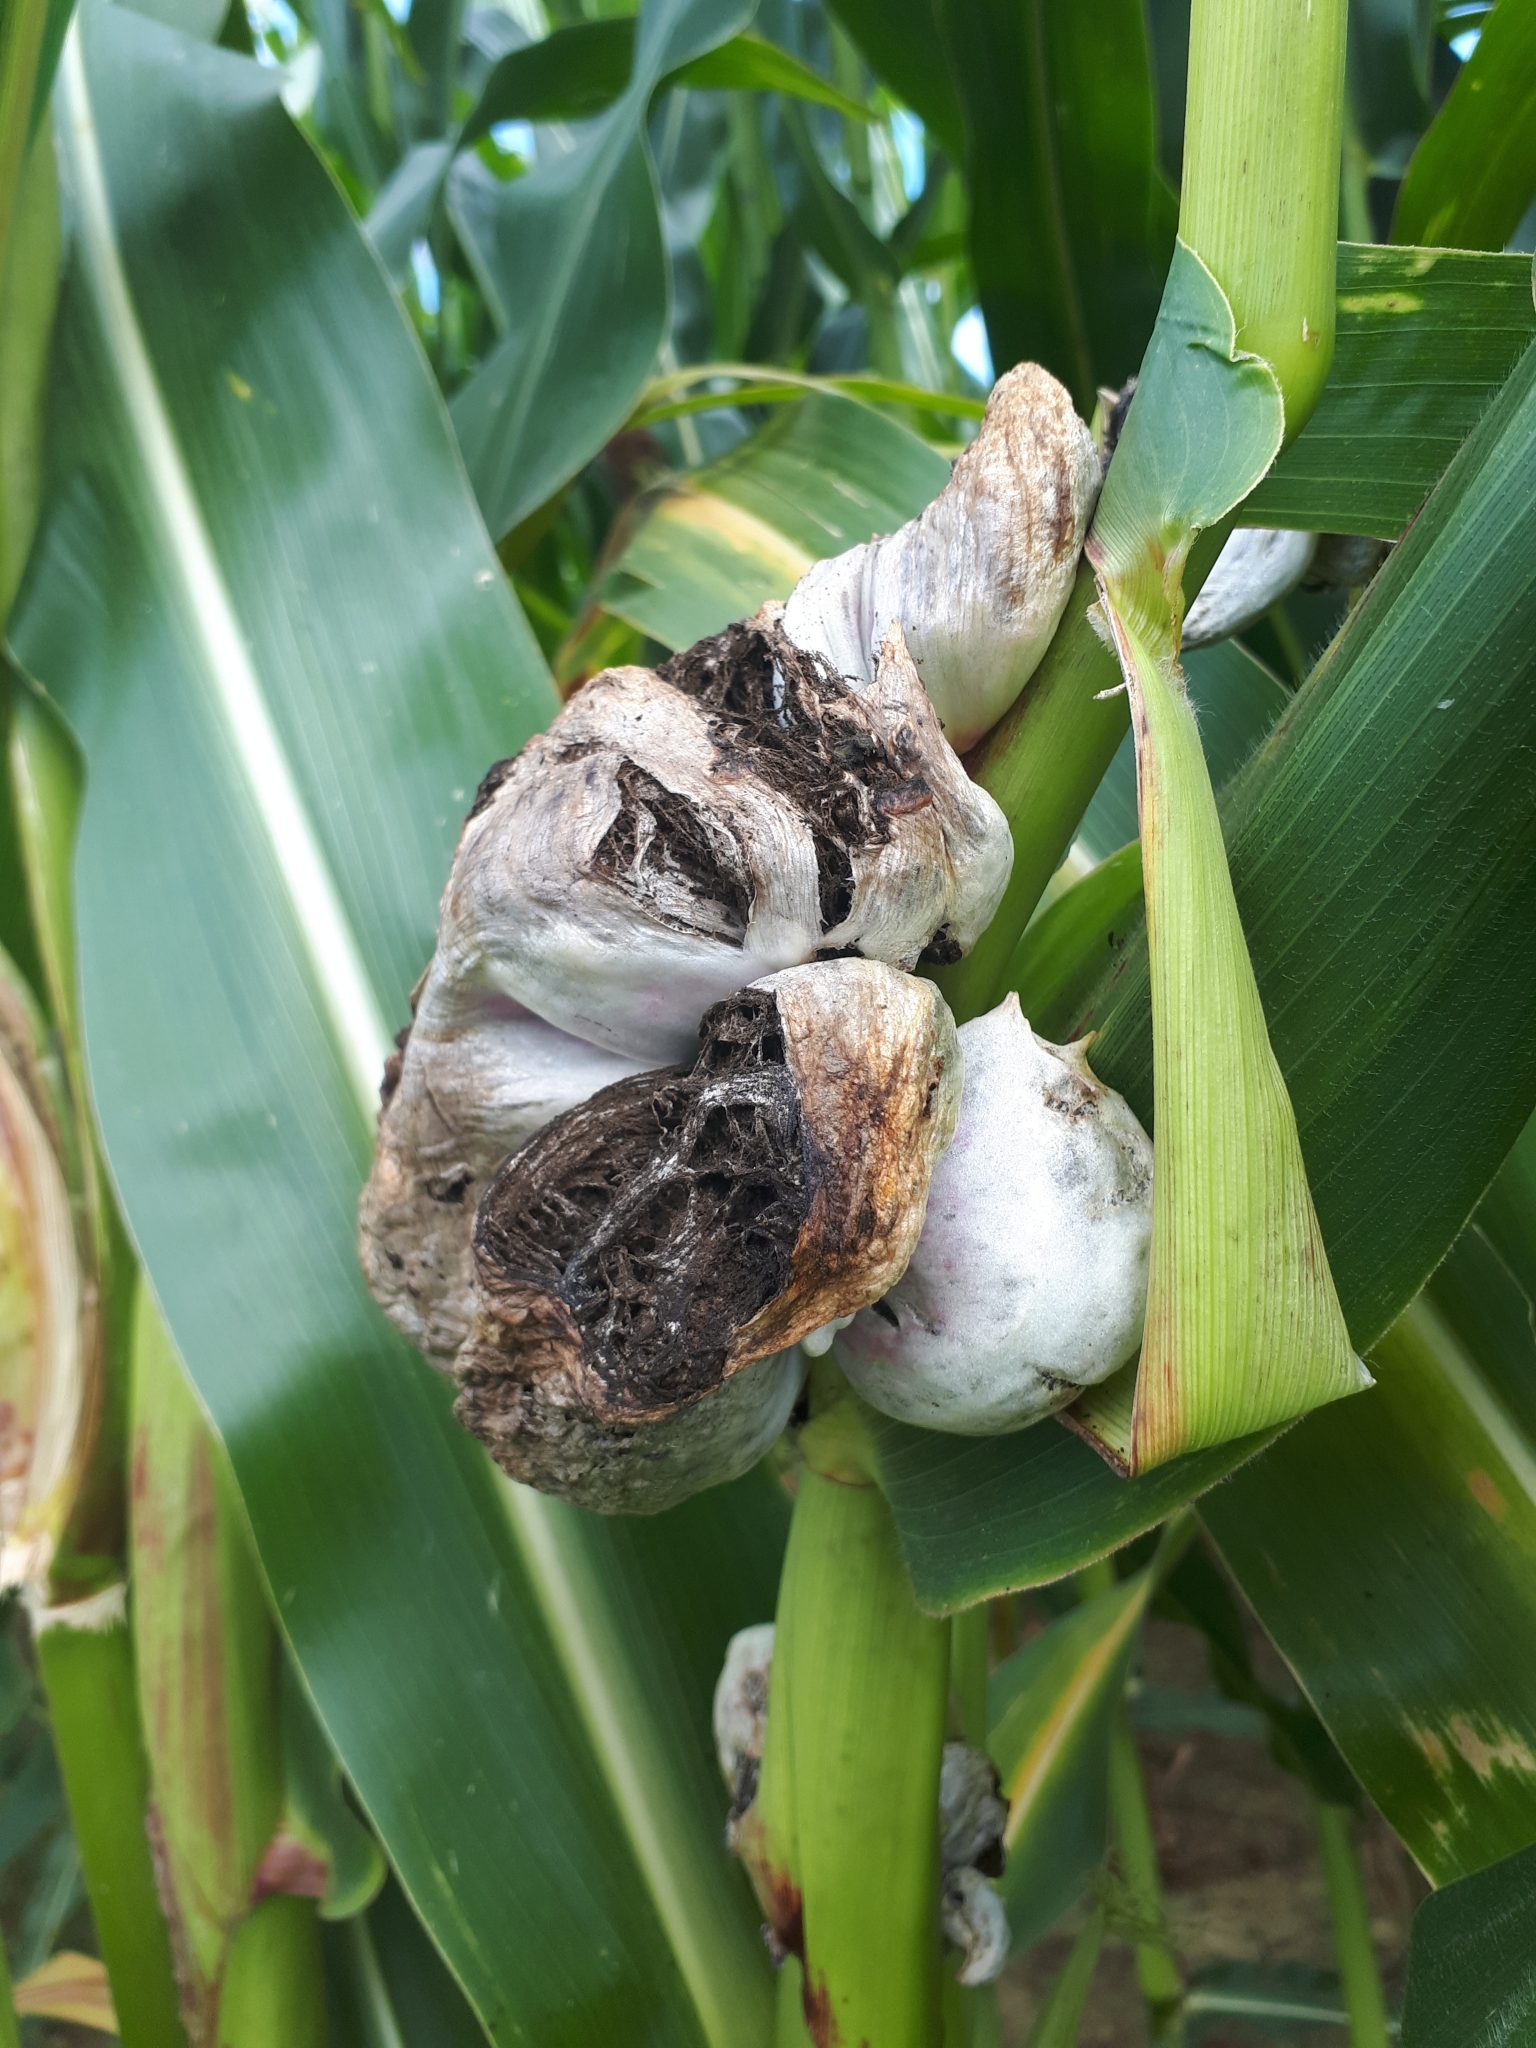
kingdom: Fungi
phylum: Basidiomycota
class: Ustilaginomycetes
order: Ustilaginales
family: Ustilaginaceae
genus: Mycosarcoma
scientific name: Mycosarcoma maydis
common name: Corn smut
